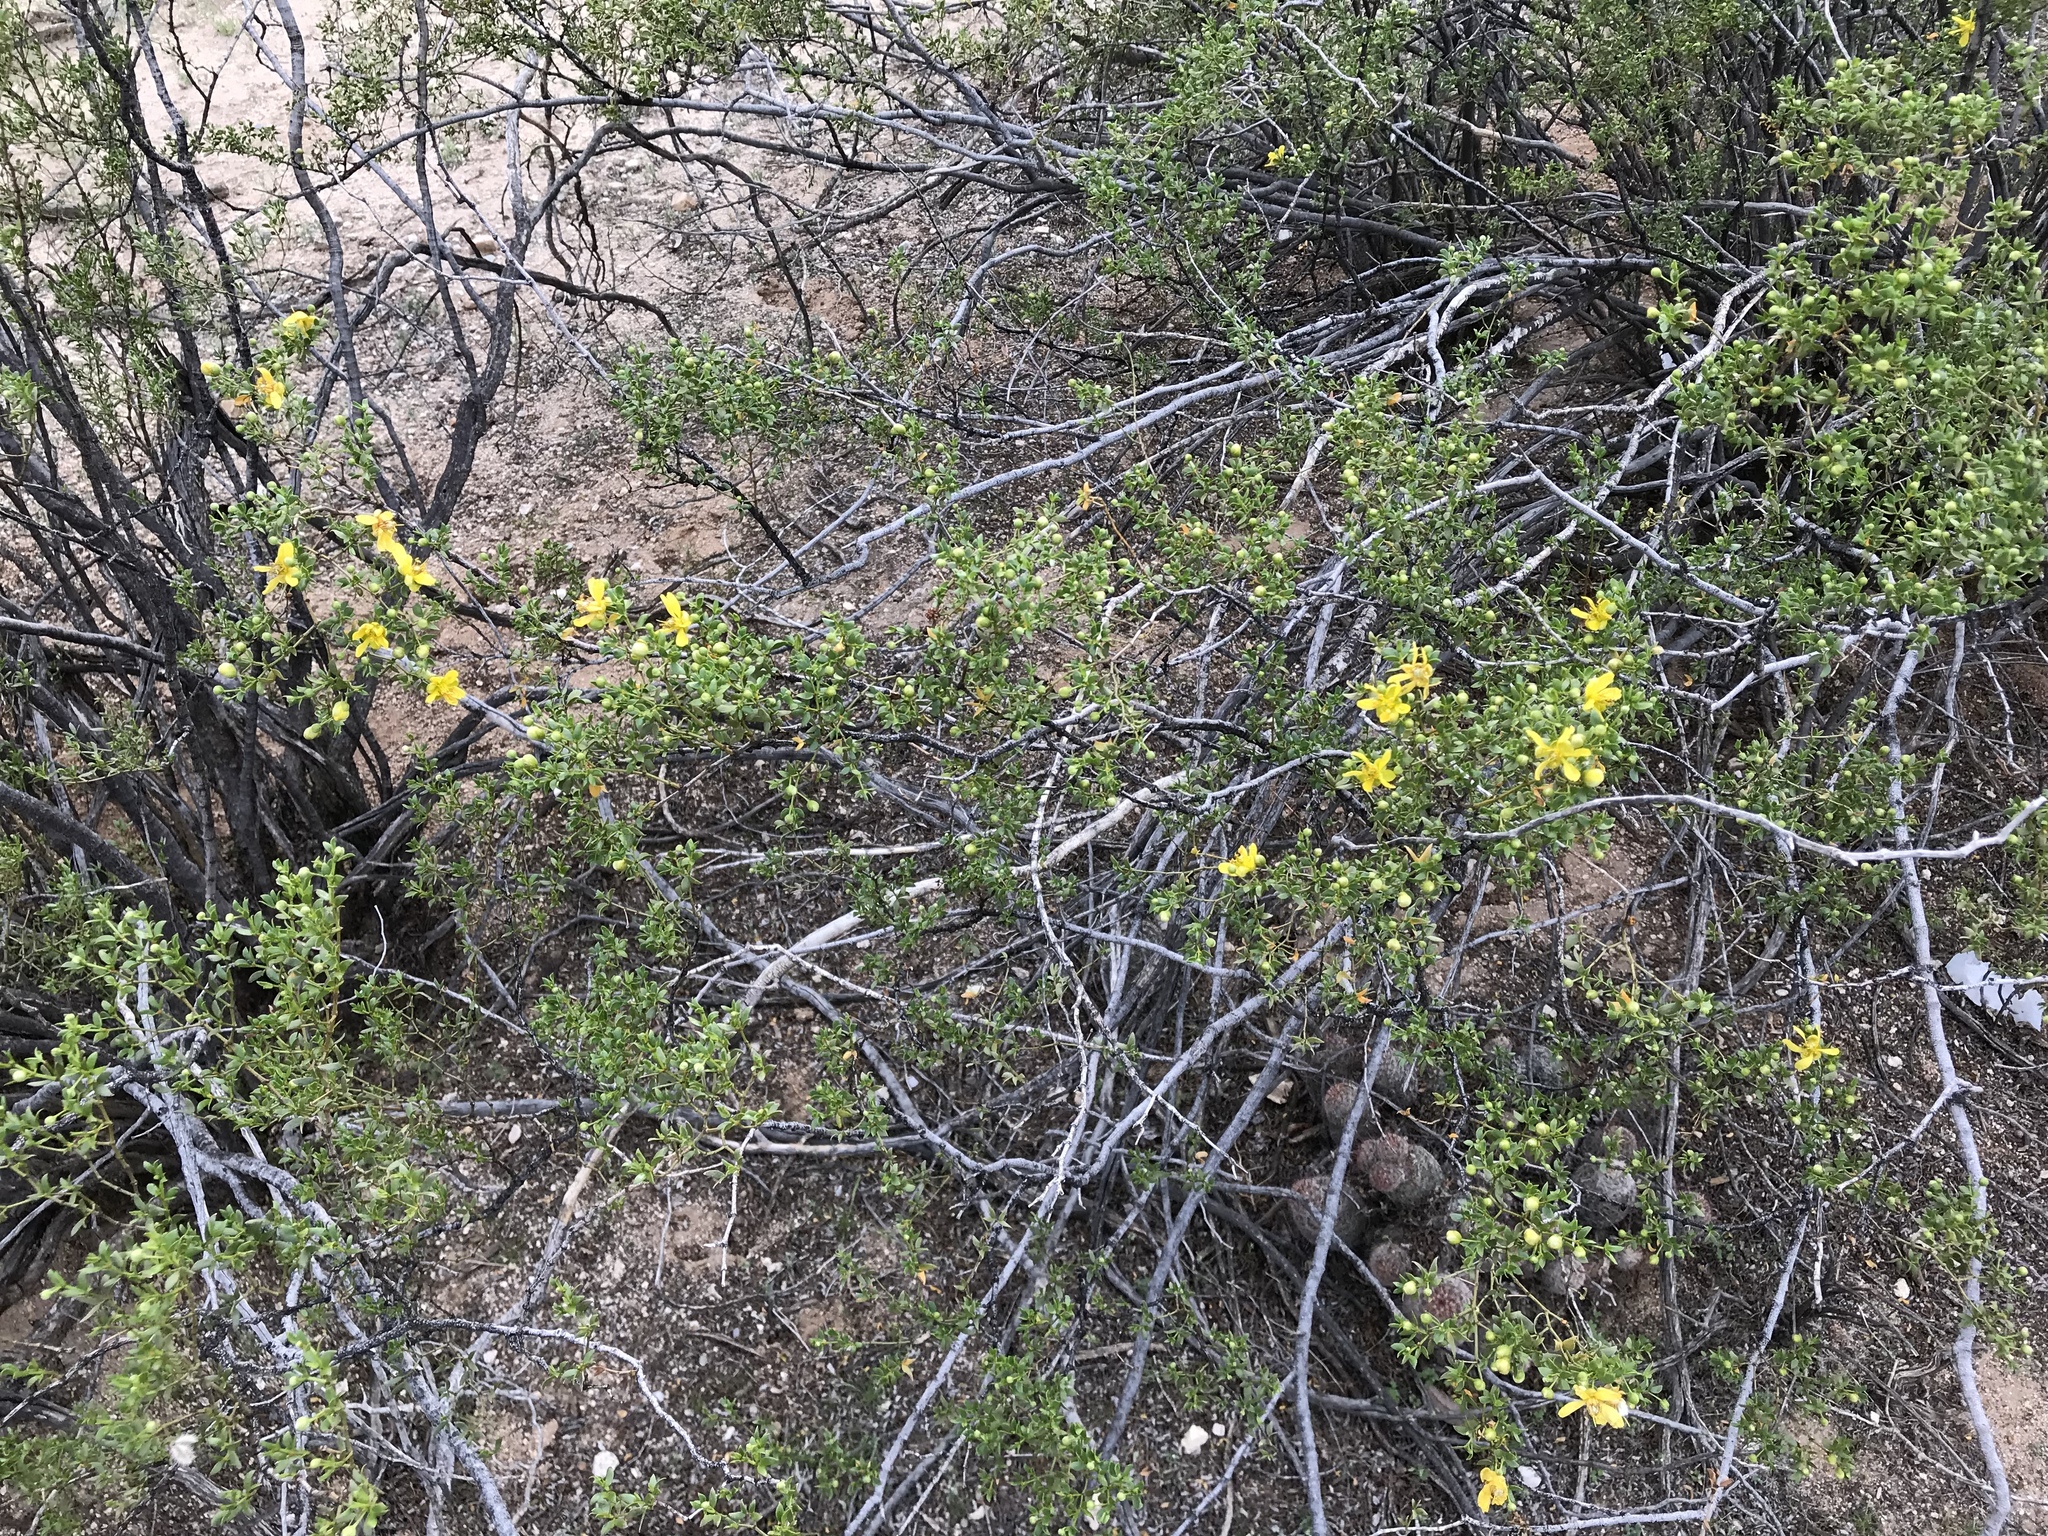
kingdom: Plantae
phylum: Tracheophyta
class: Magnoliopsida
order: Zygophyllales
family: Zygophyllaceae
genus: Larrea
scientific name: Larrea tridentata
